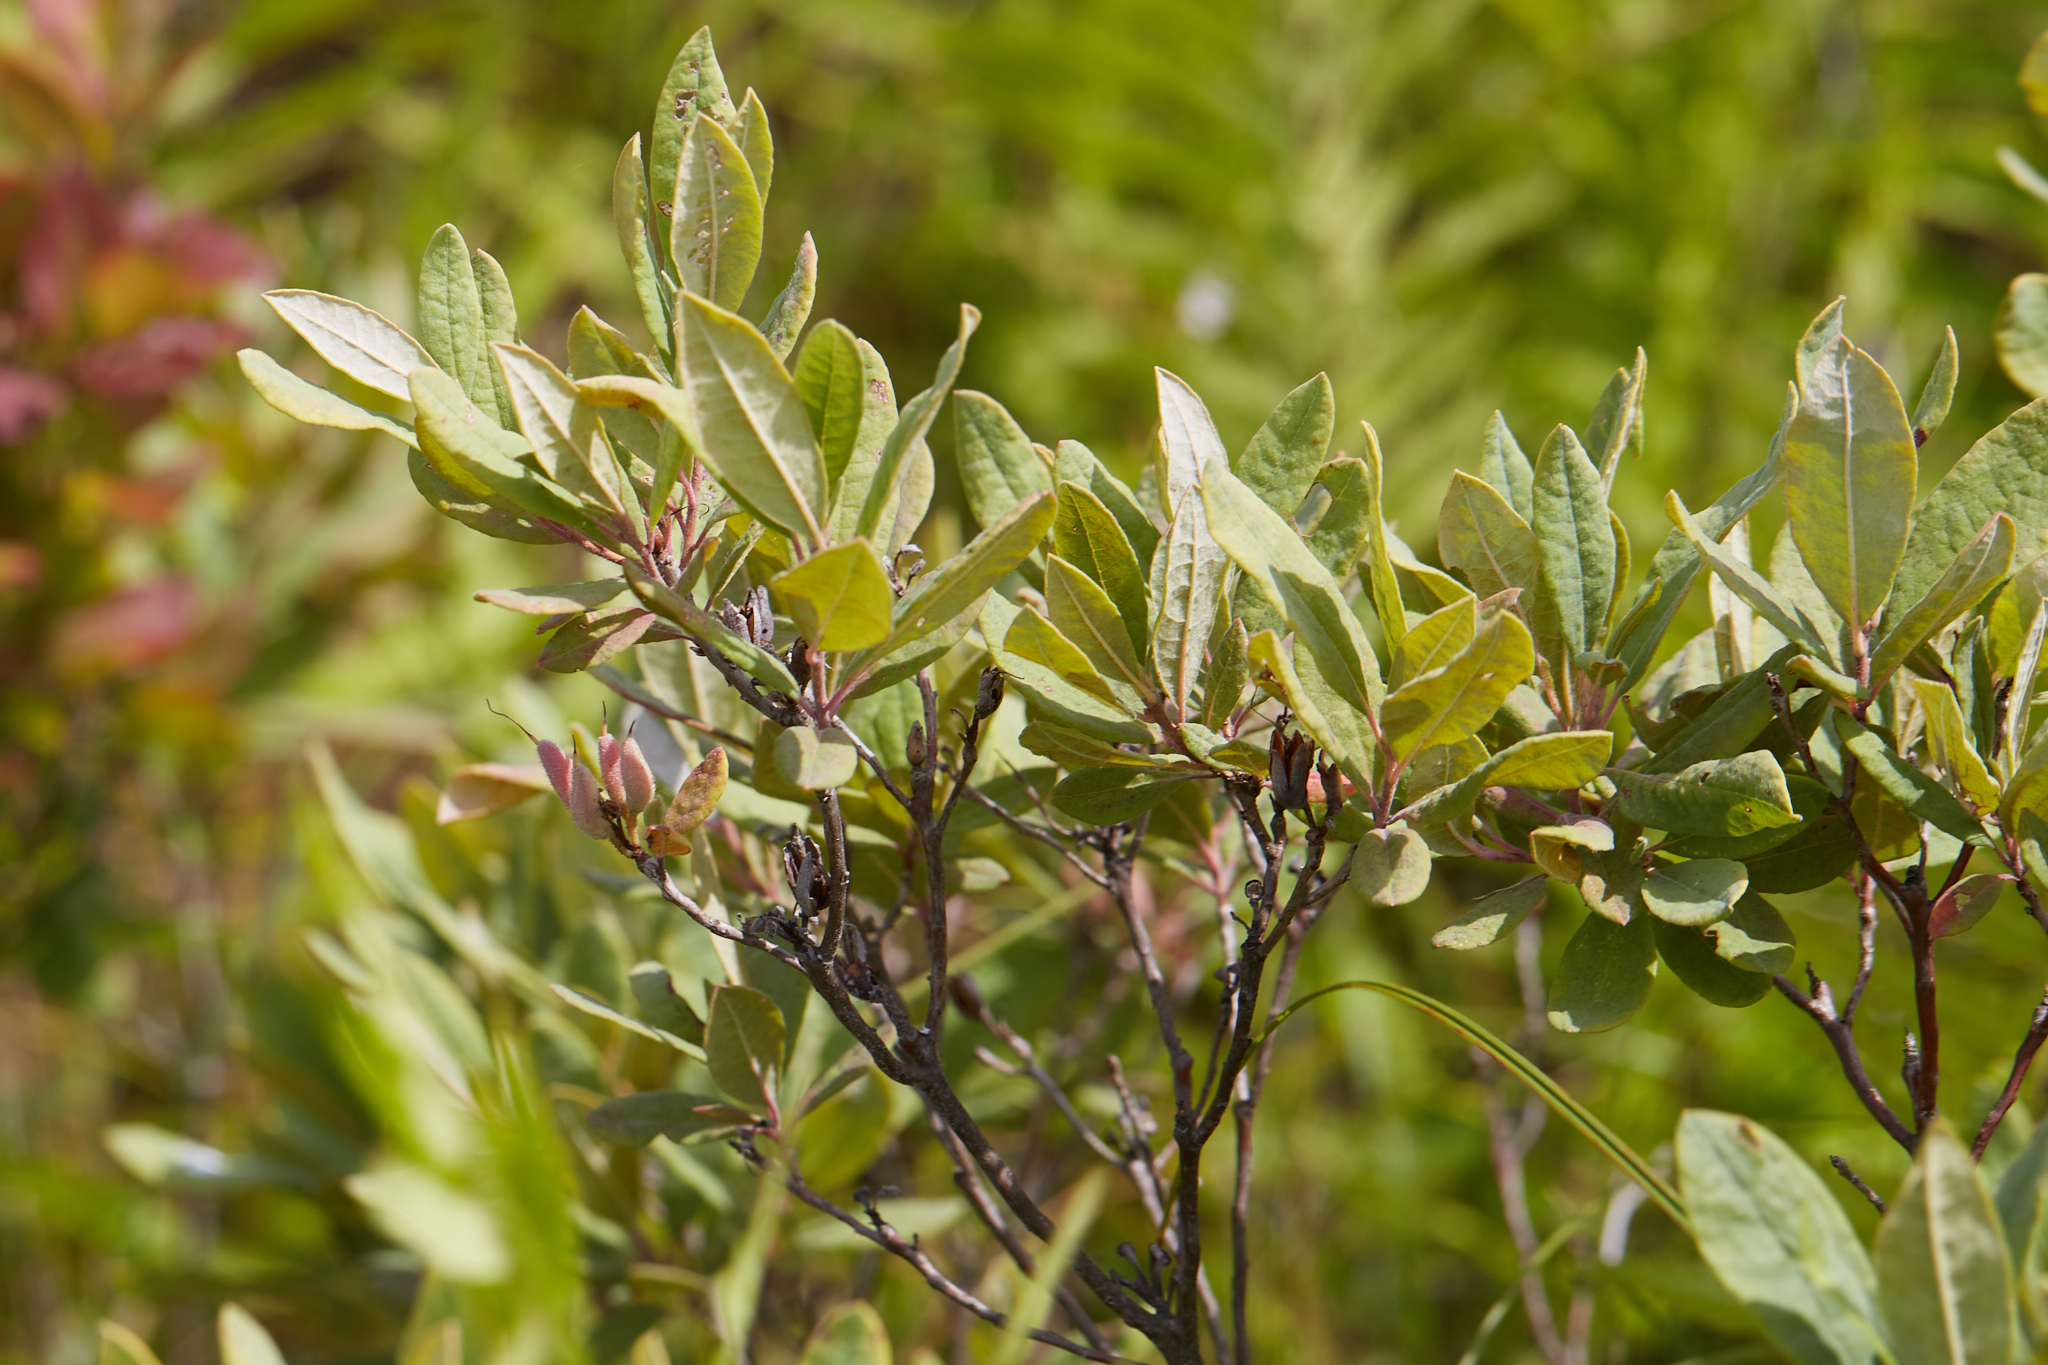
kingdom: Plantae
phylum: Tracheophyta
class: Magnoliopsida
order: Ericales
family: Ericaceae
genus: Rhododendron
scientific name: Rhododendron canadense
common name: Rhodora
